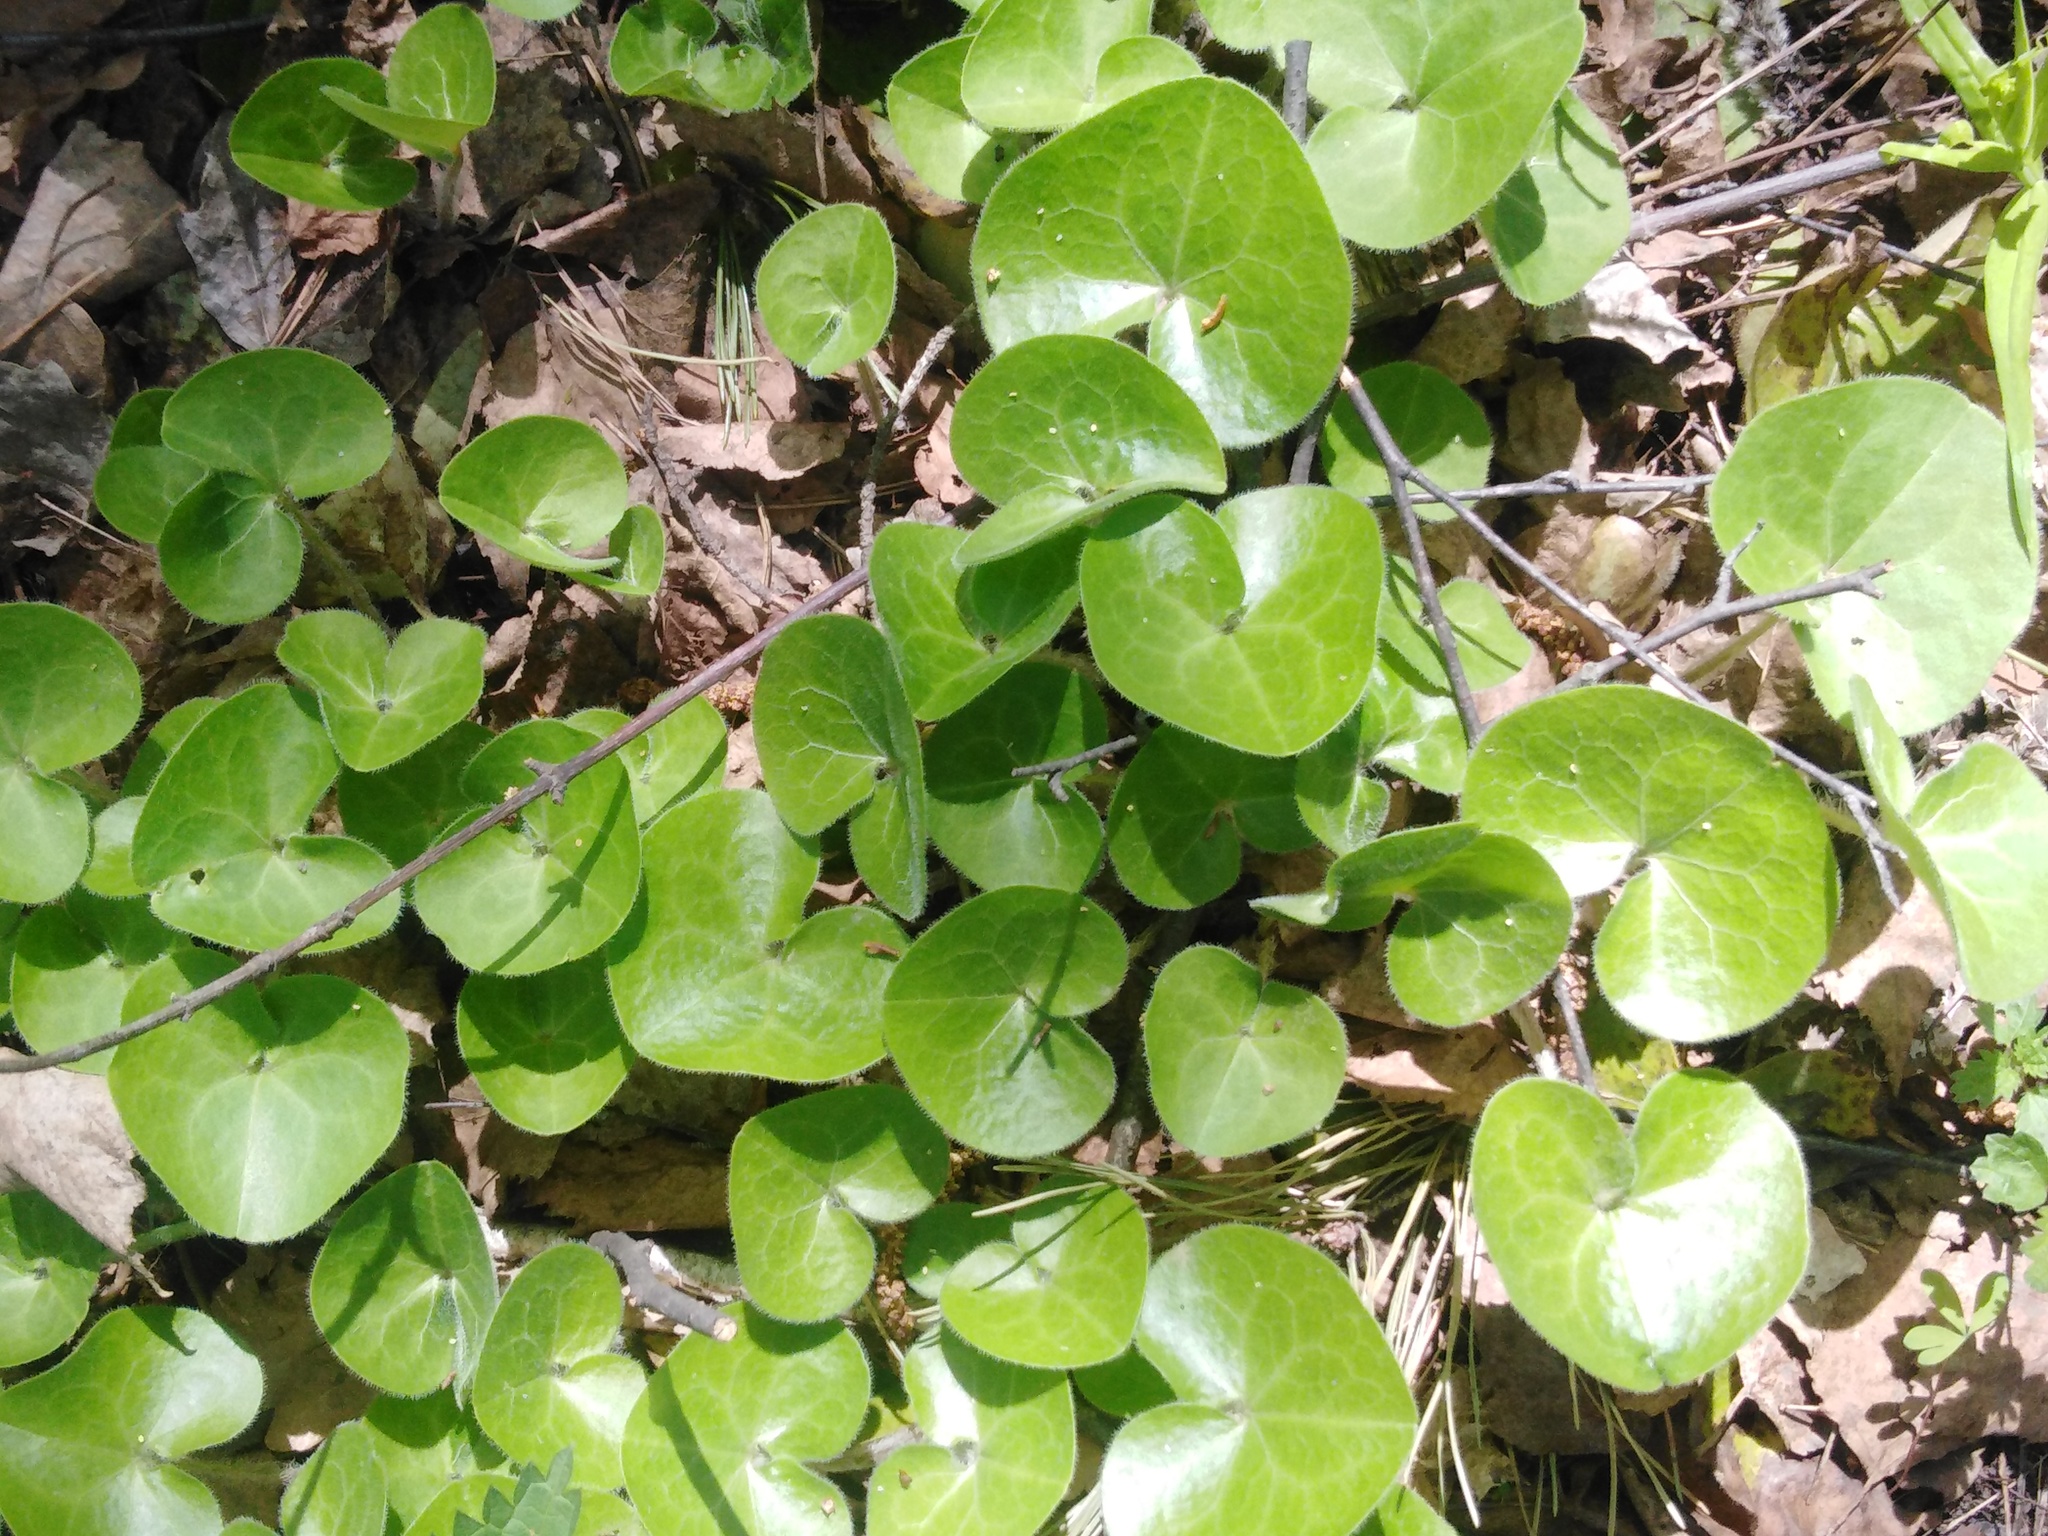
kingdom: Plantae
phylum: Tracheophyta
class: Magnoliopsida
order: Piperales
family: Aristolochiaceae
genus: Asarum
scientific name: Asarum europaeum
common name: Asarabacca
